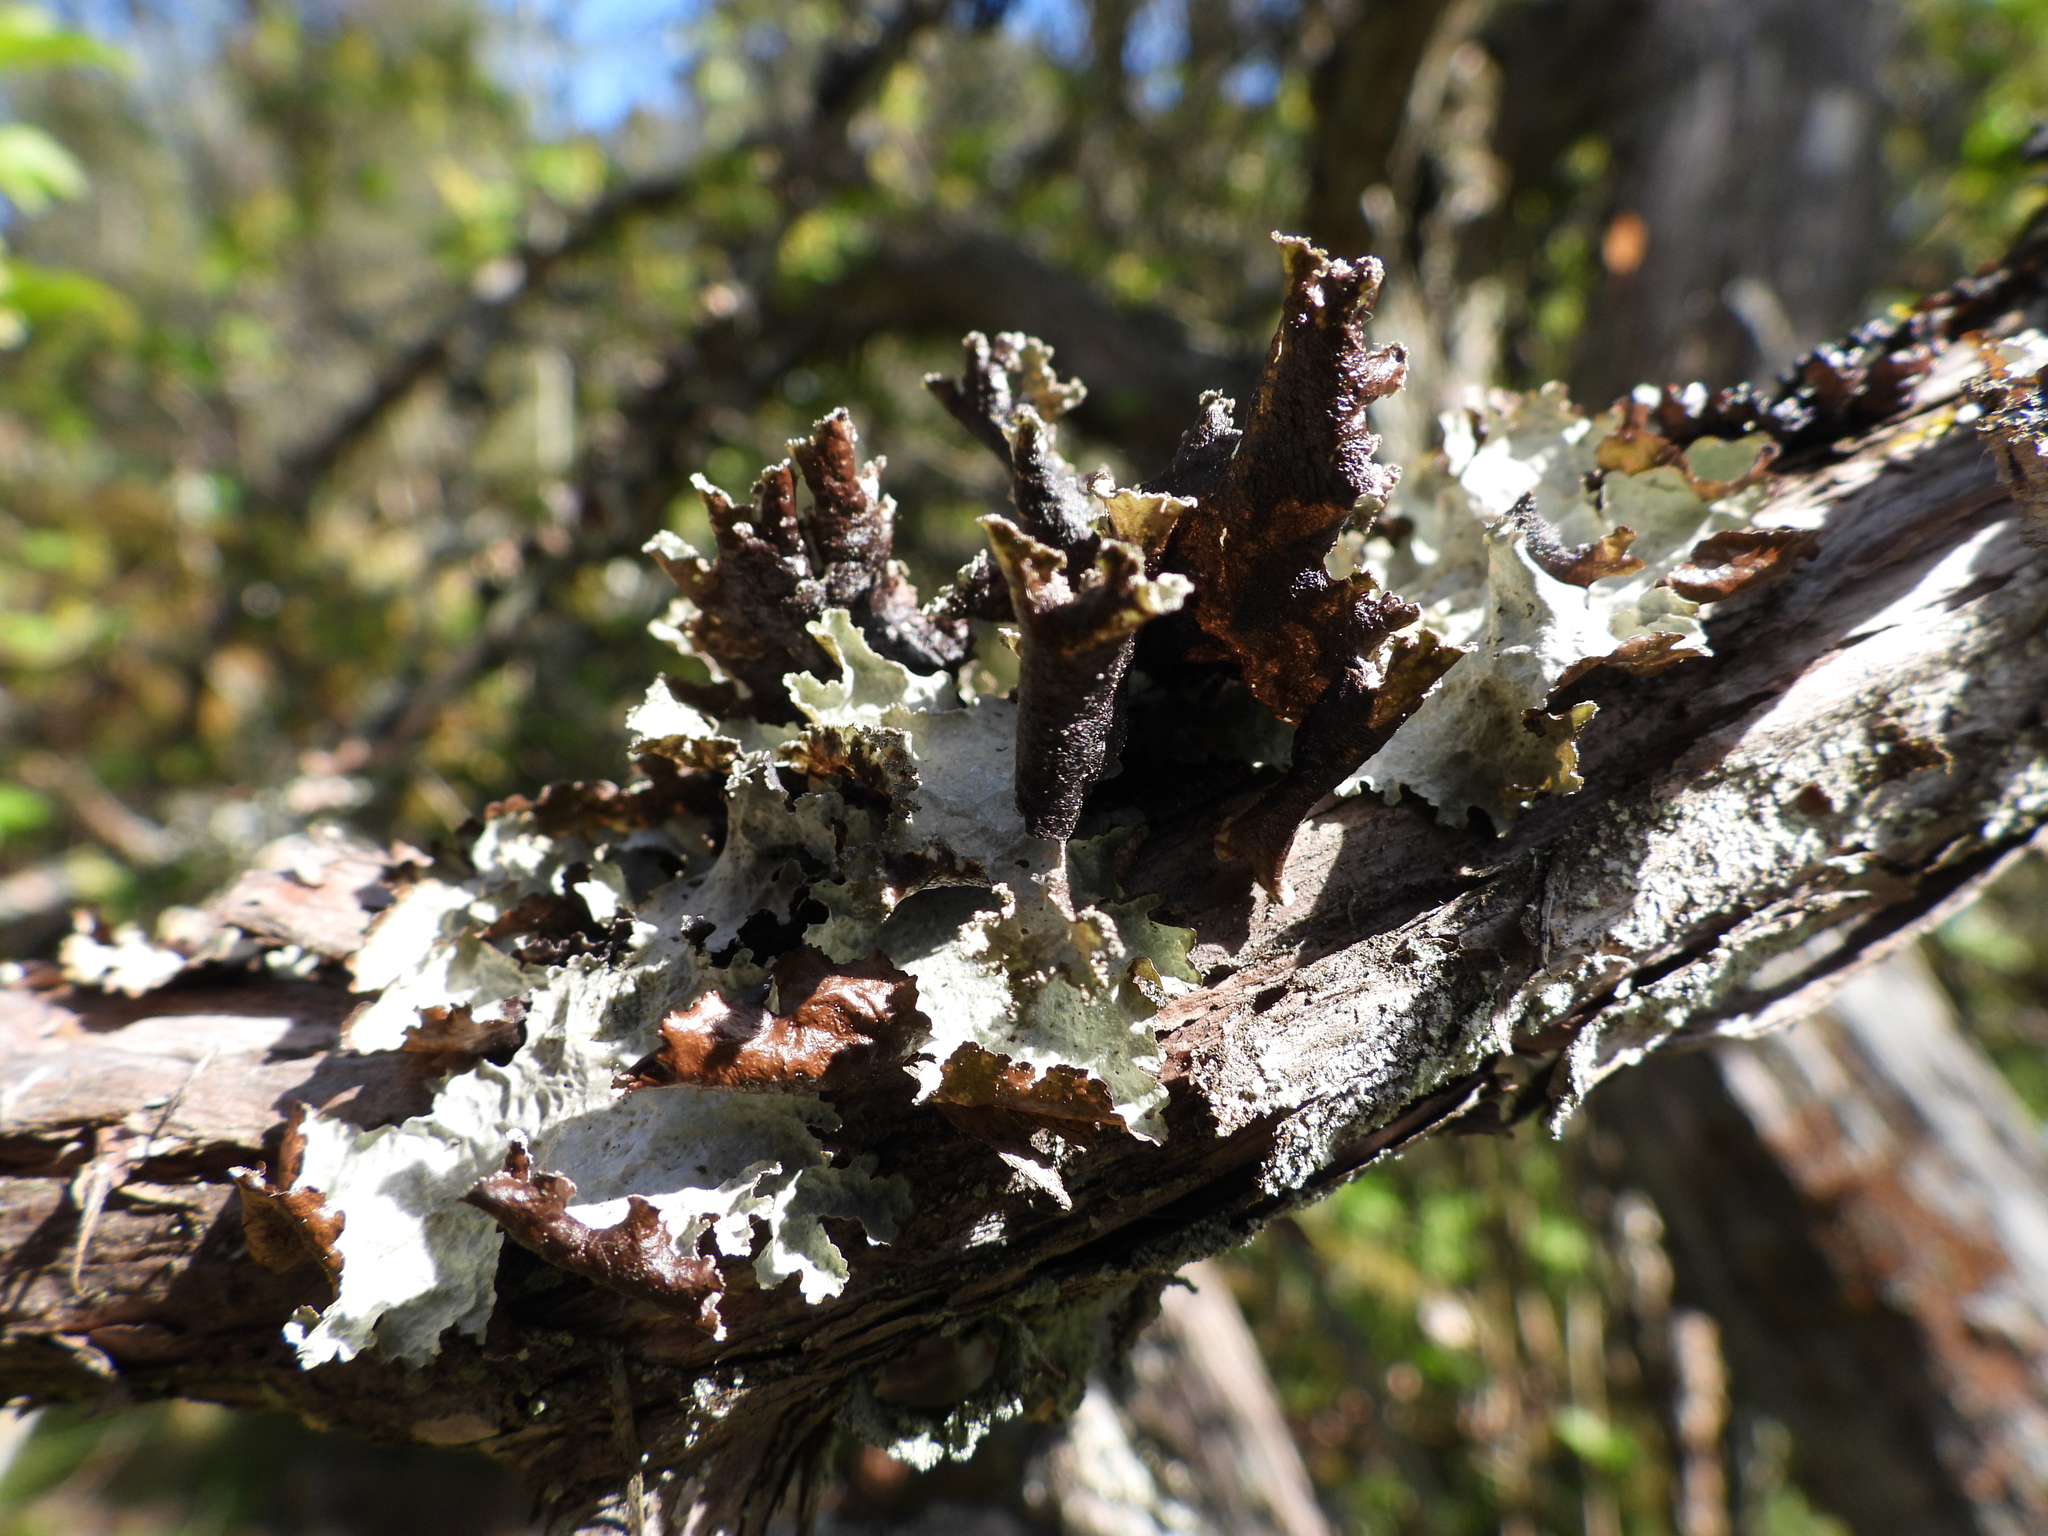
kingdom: Fungi
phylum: Ascomycota
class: Lecanoromycetes
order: Lecanorales
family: Parmeliaceae
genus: Platismatia
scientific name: Platismatia glauca
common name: Varied rag lichen
